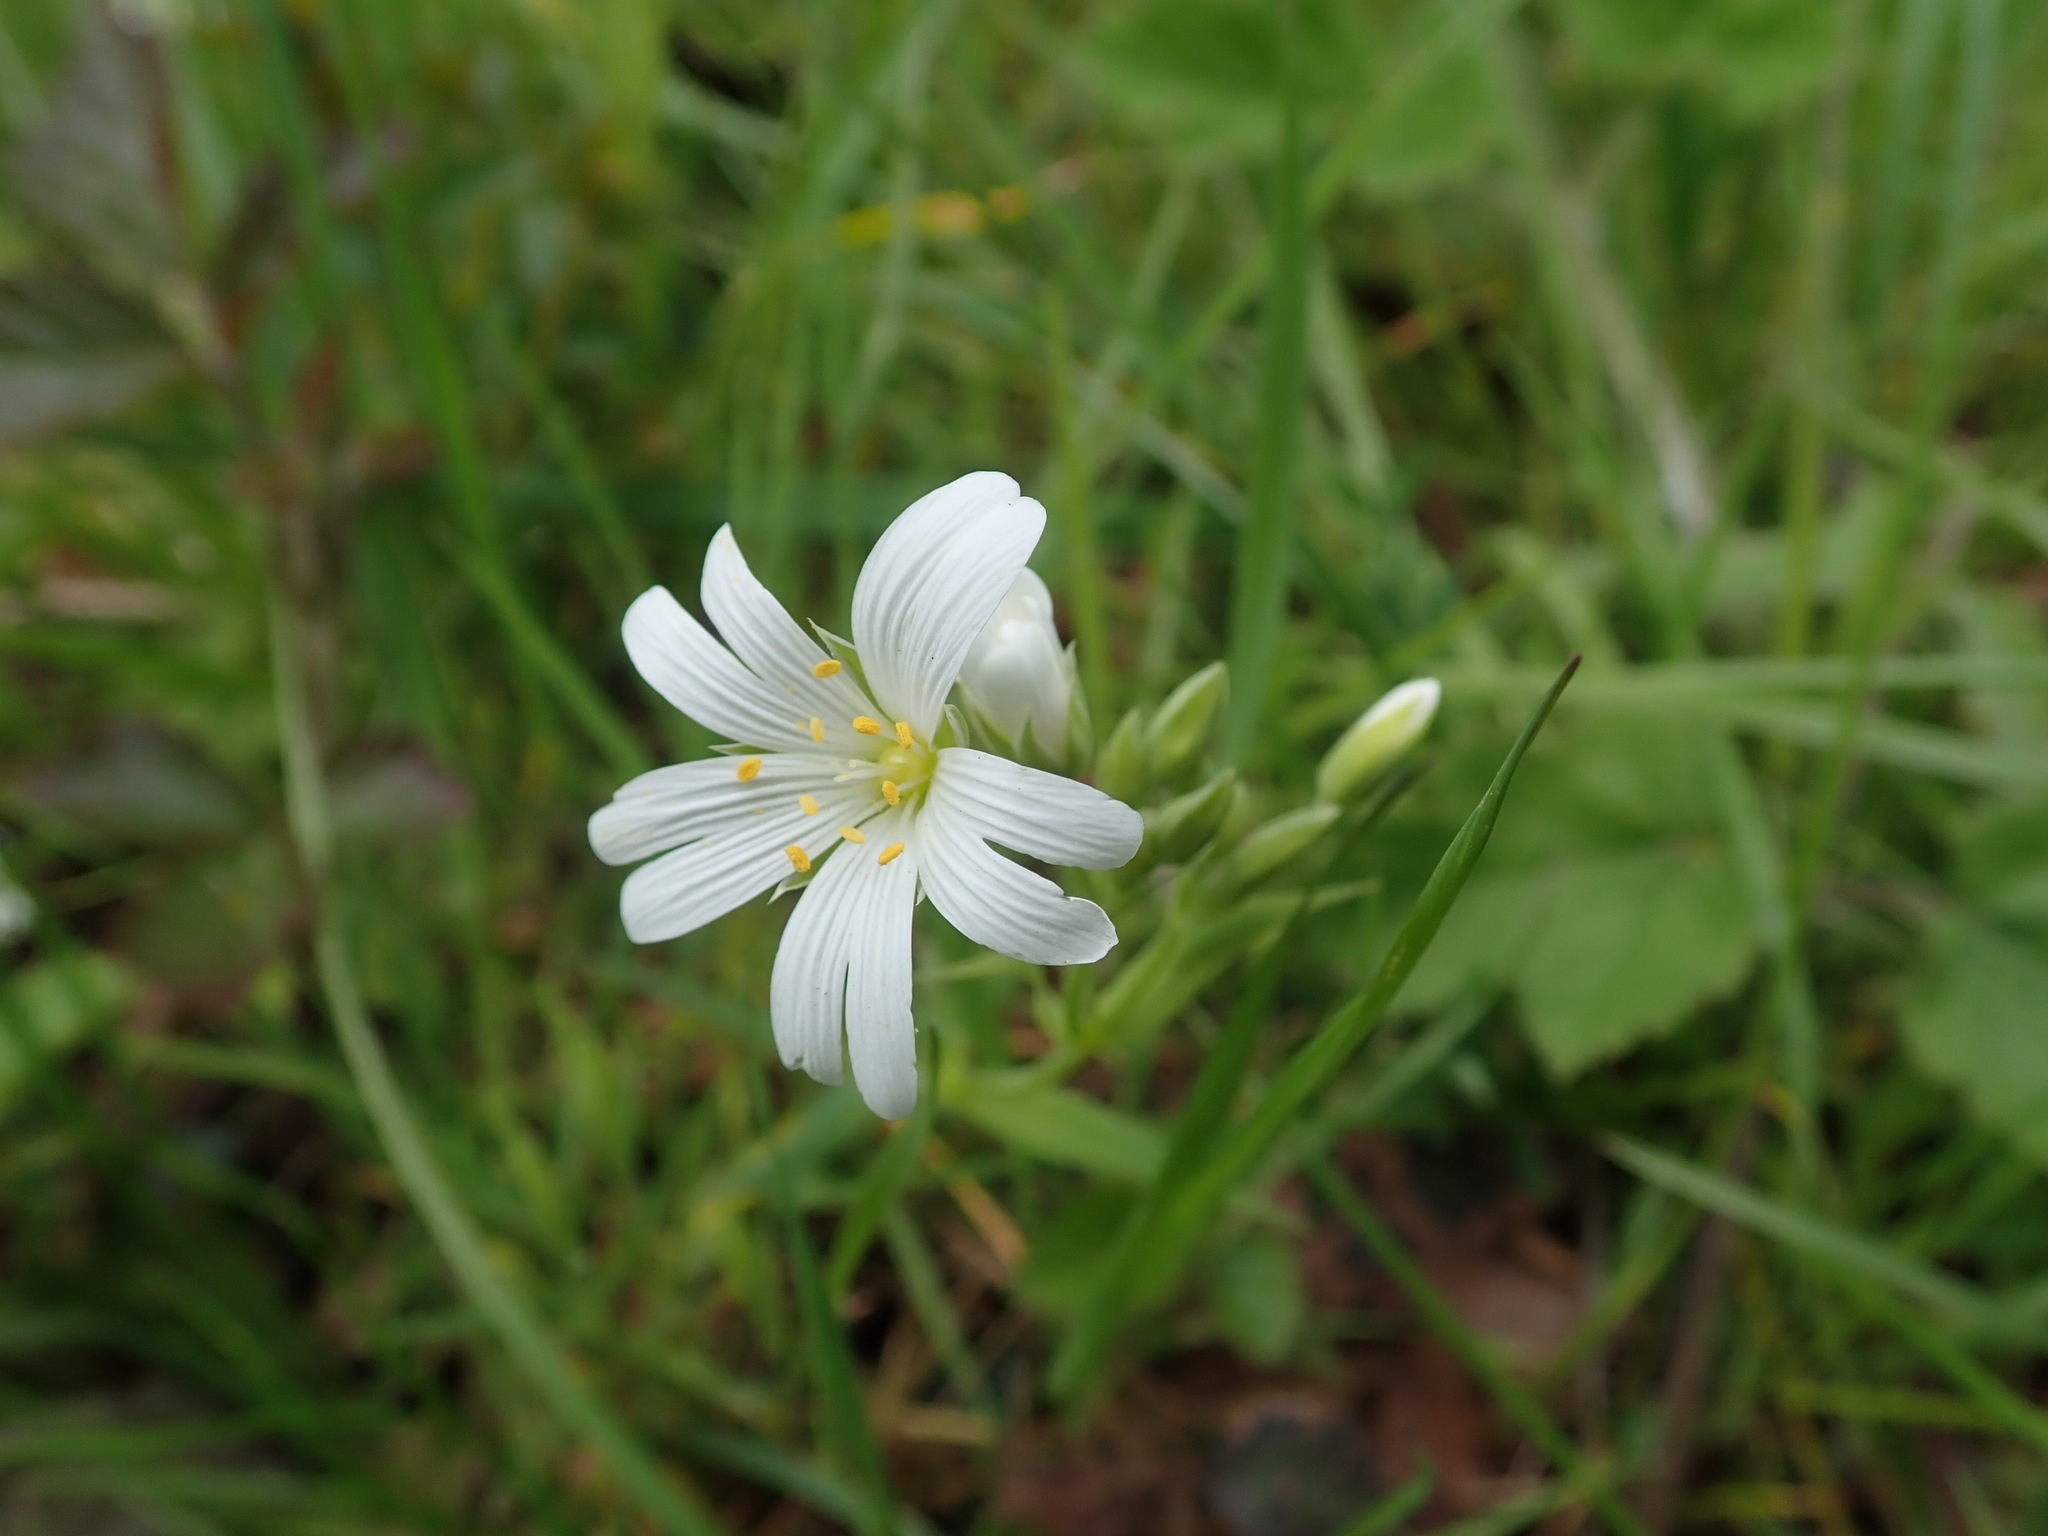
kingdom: Plantae
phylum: Tracheophyta
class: Magnoliopsida
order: Caryophyllales
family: Caryophyllaceae
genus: Rabelera
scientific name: Rabelera holostea
